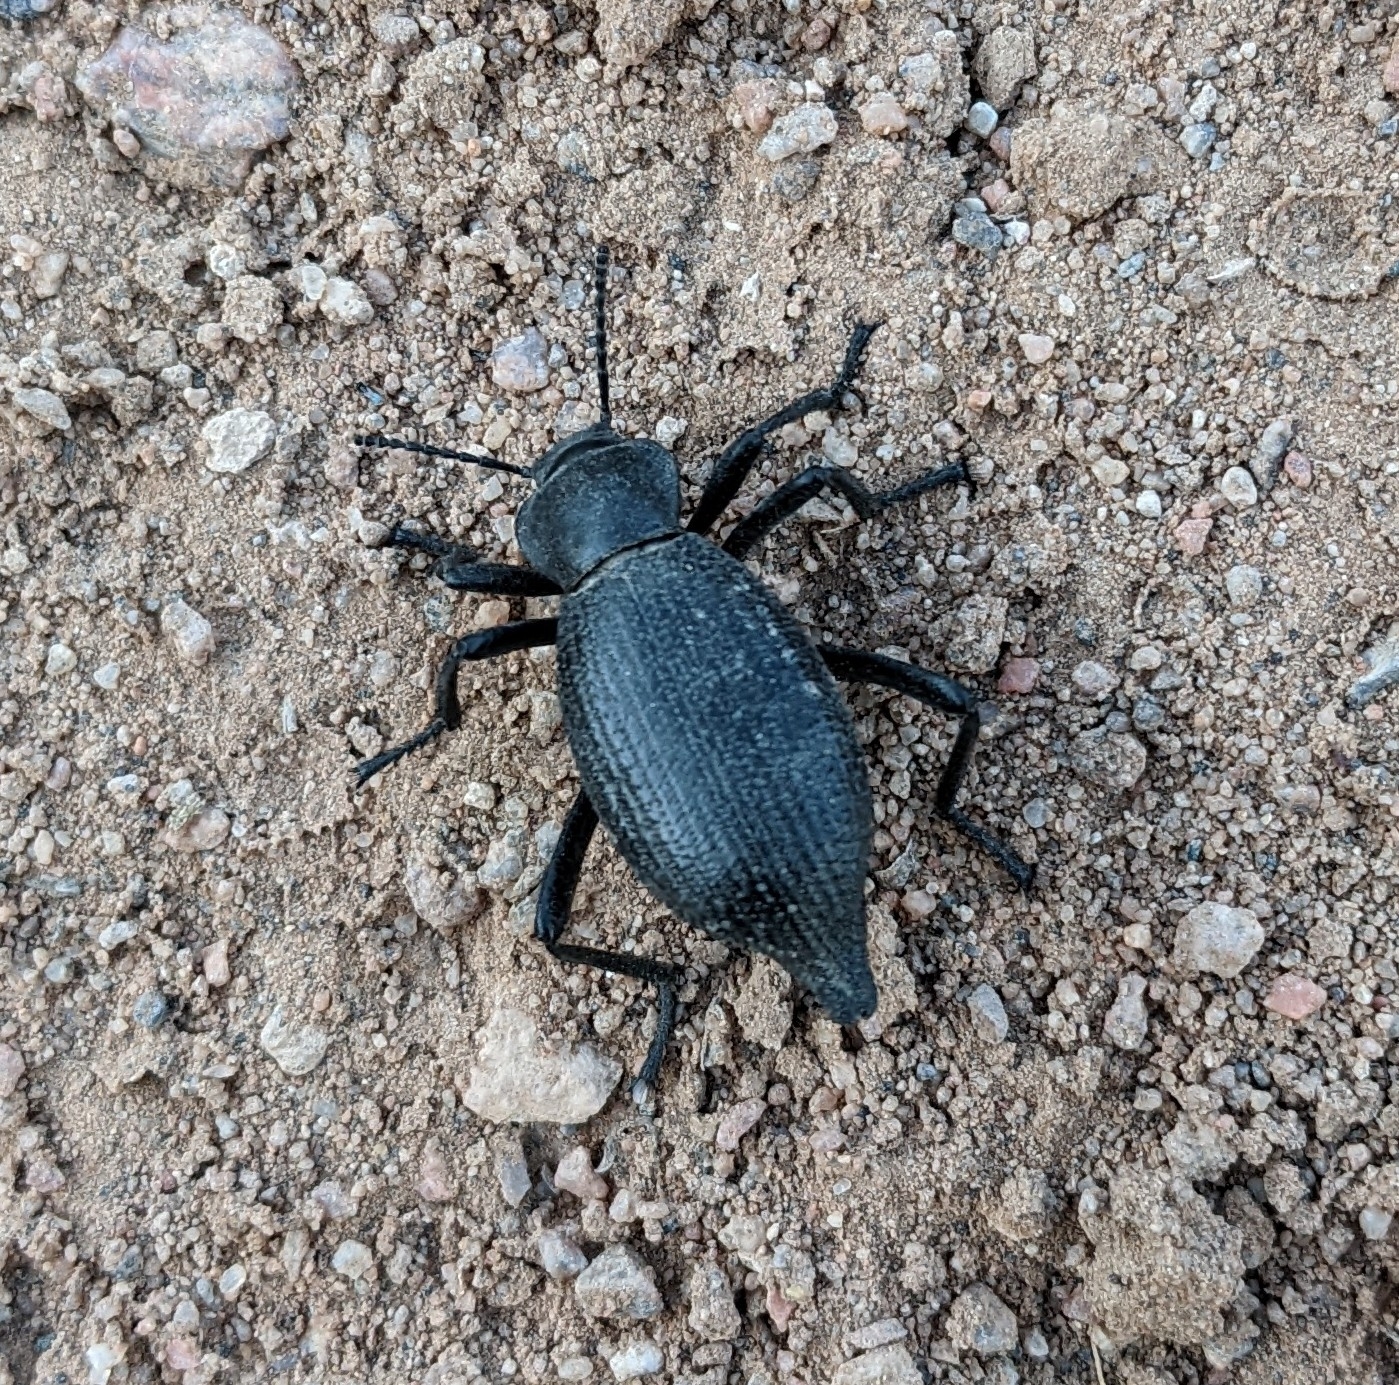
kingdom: Animalia
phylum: Arthropoda
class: Insecta
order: Coleoptera
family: Tenebrionidae
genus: Eleodes
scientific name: Eleodes caudifera
